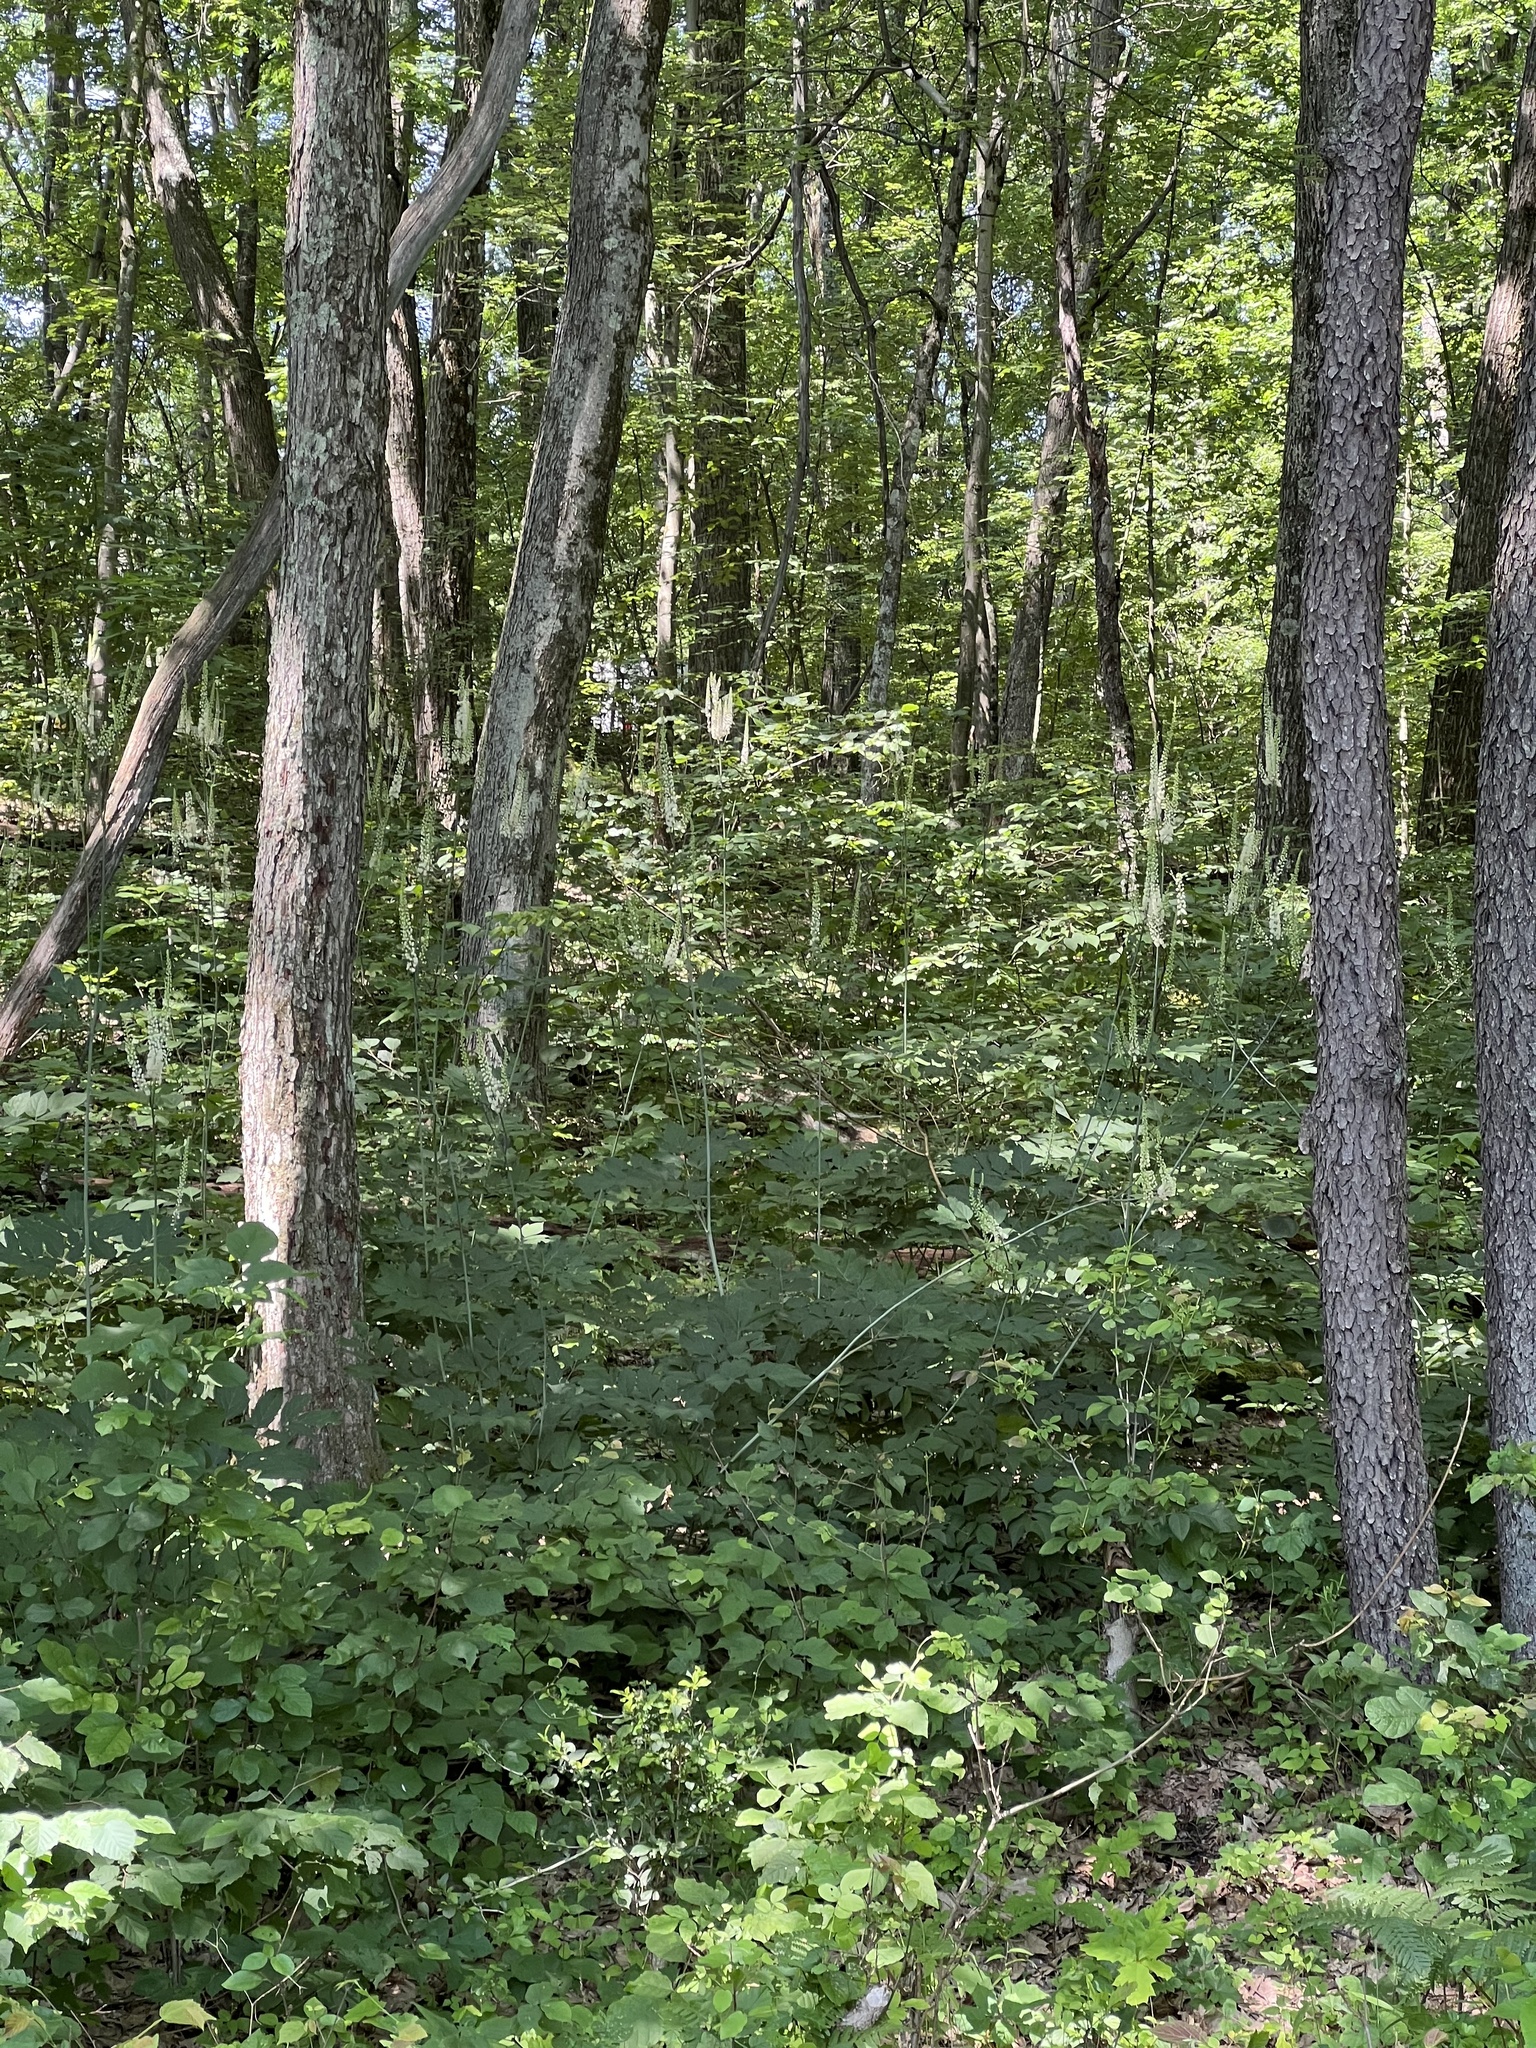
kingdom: Plantae
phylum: Tracheophyta
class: Magnoliopsida
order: Ranunculales
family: Ranunculaceae
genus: Actaea
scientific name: Actaea racemosa
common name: Black cohosh
